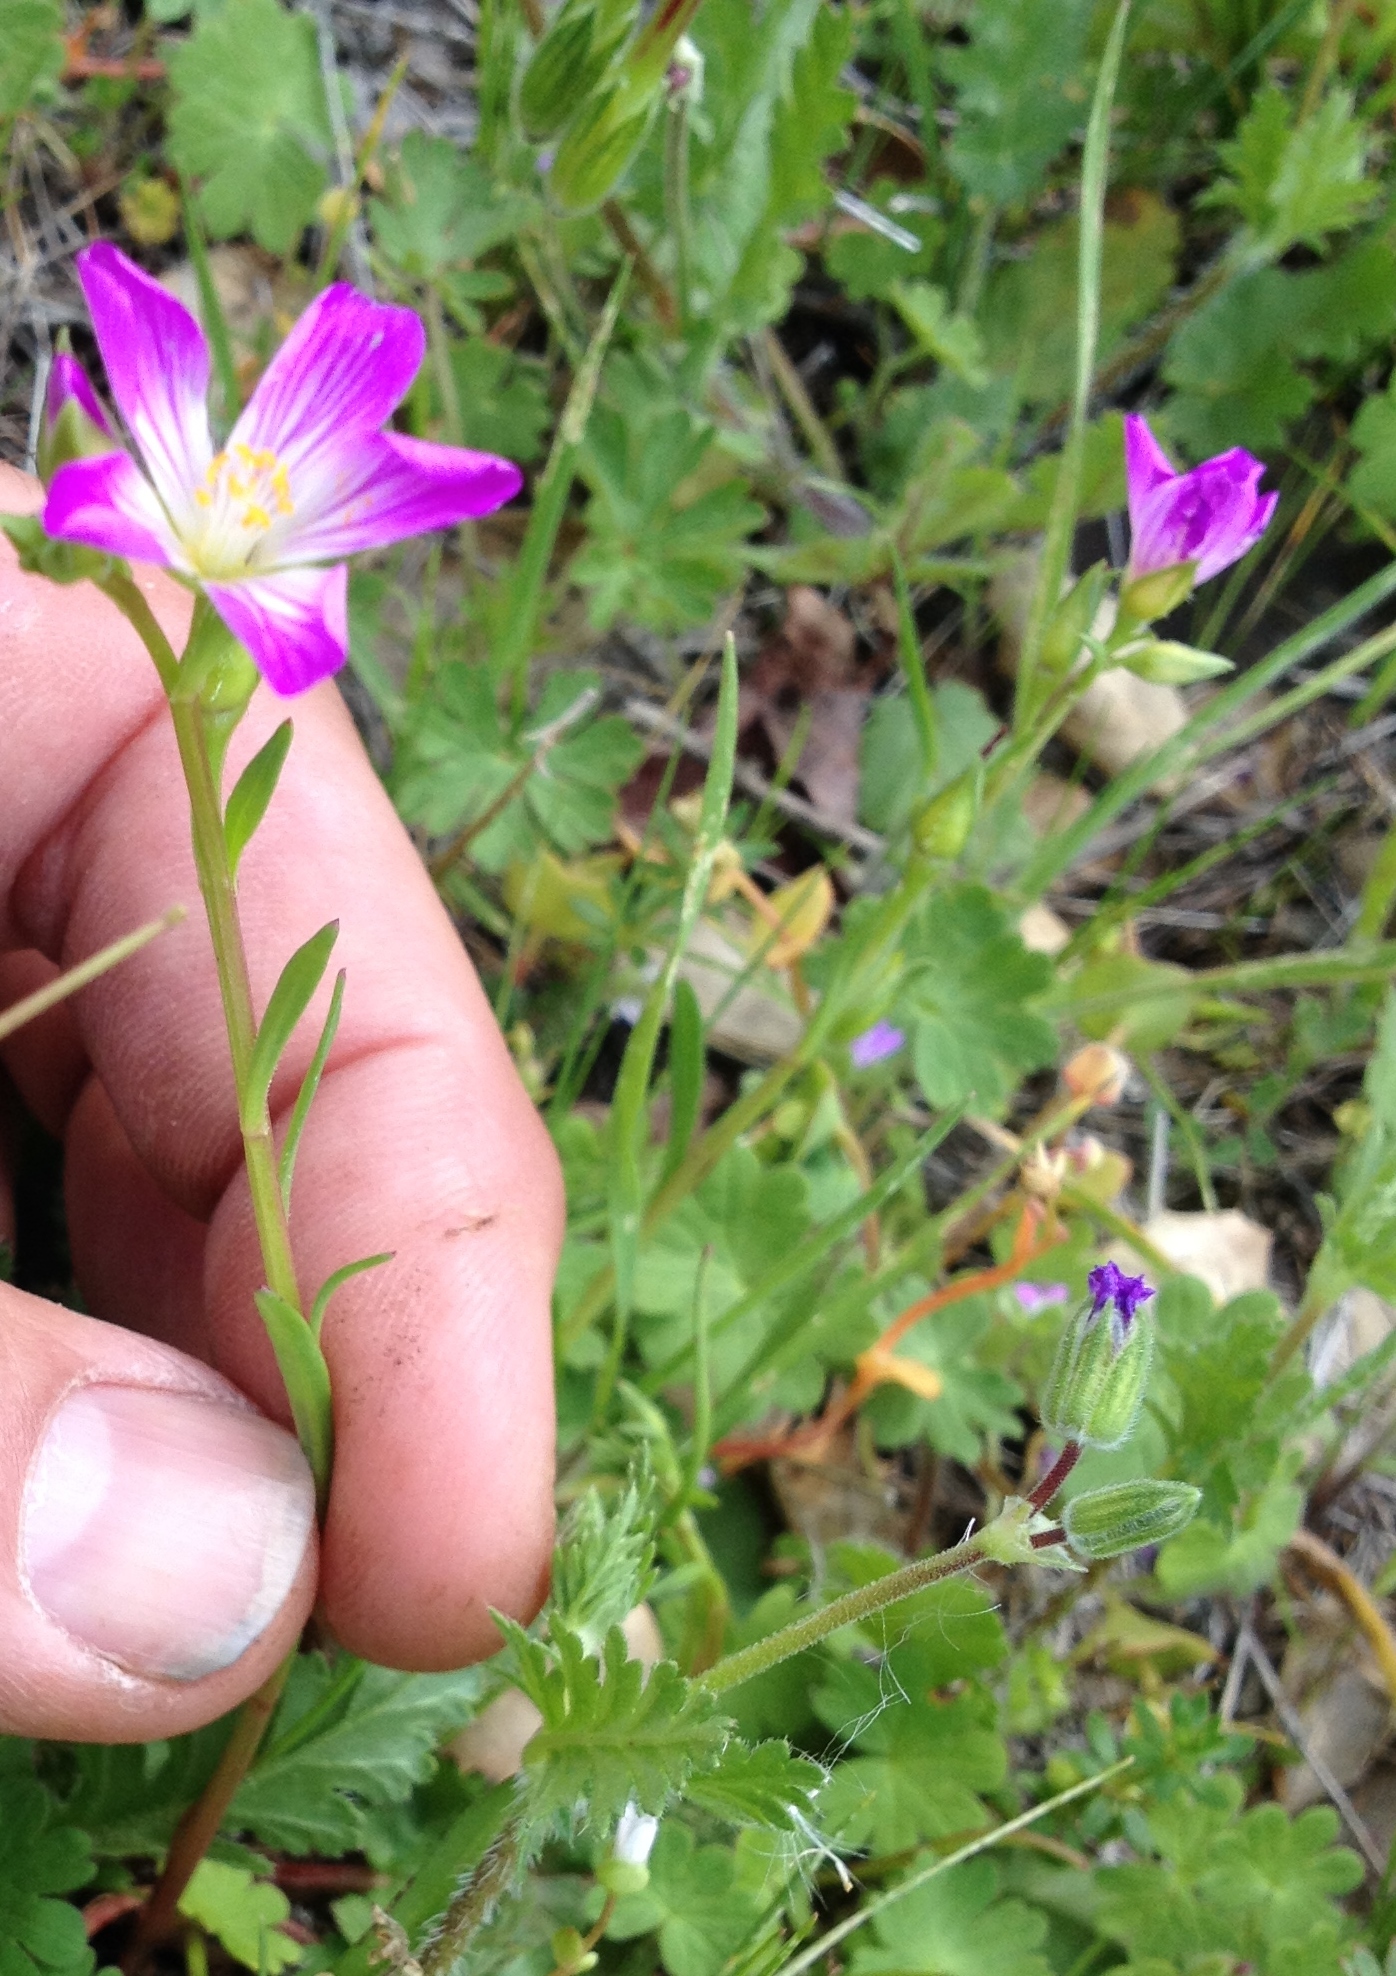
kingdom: Plantae
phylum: Tracheophyta
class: Magnoliopsida
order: Caryophyllales
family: Montiaceae
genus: Calandrinia
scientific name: Calandrinia menziesii
